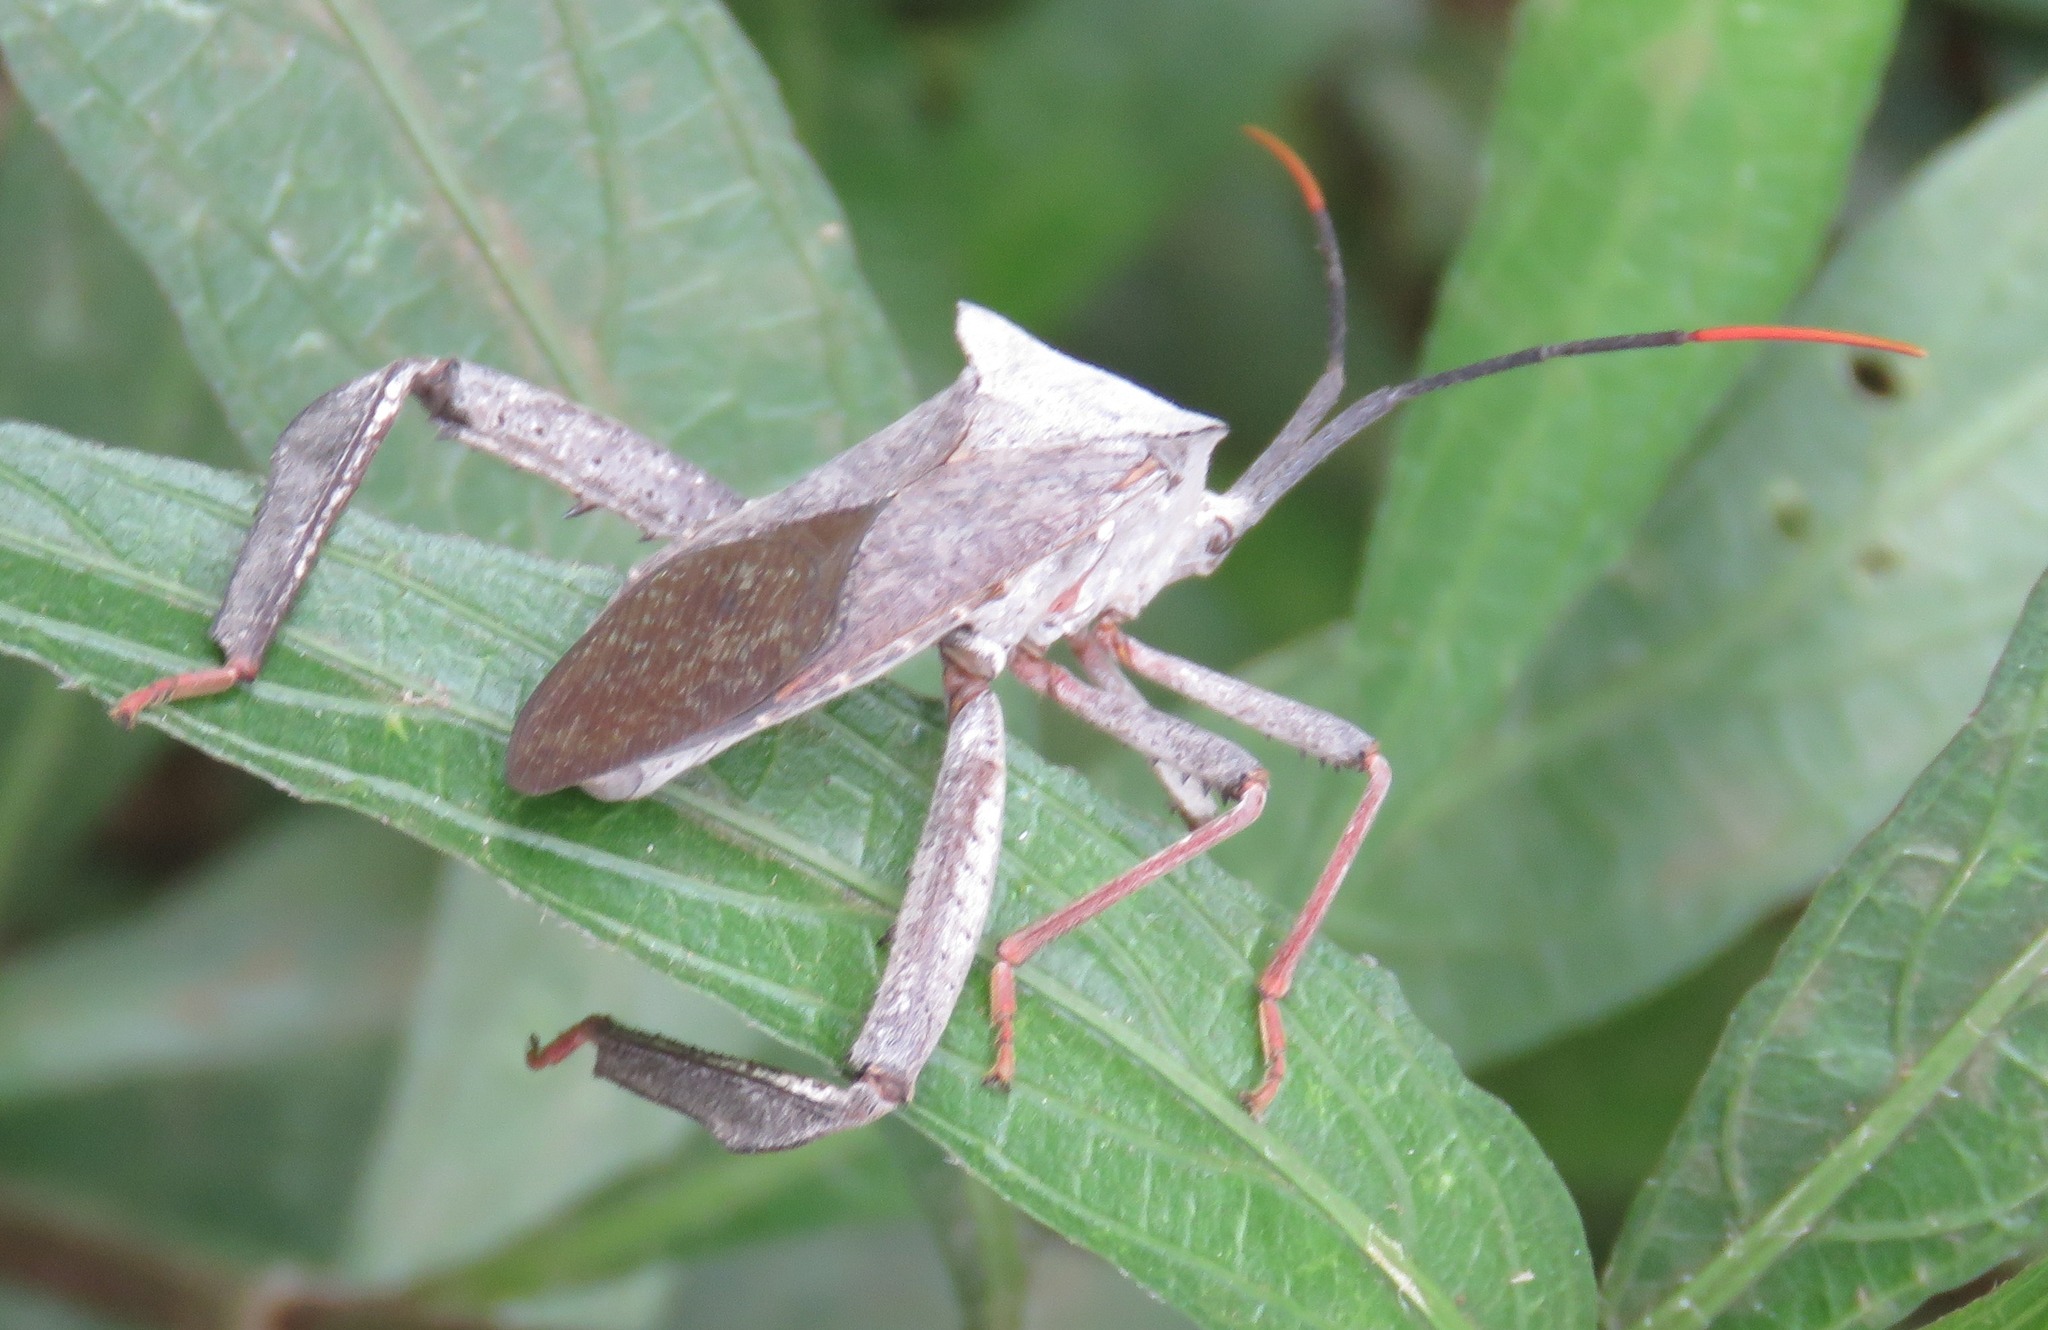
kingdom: Animalia
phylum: Arthropoda
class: Insecta
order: Hemiptera
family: Coreidae
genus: Acanthocephala
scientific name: Acanthocephala alata
